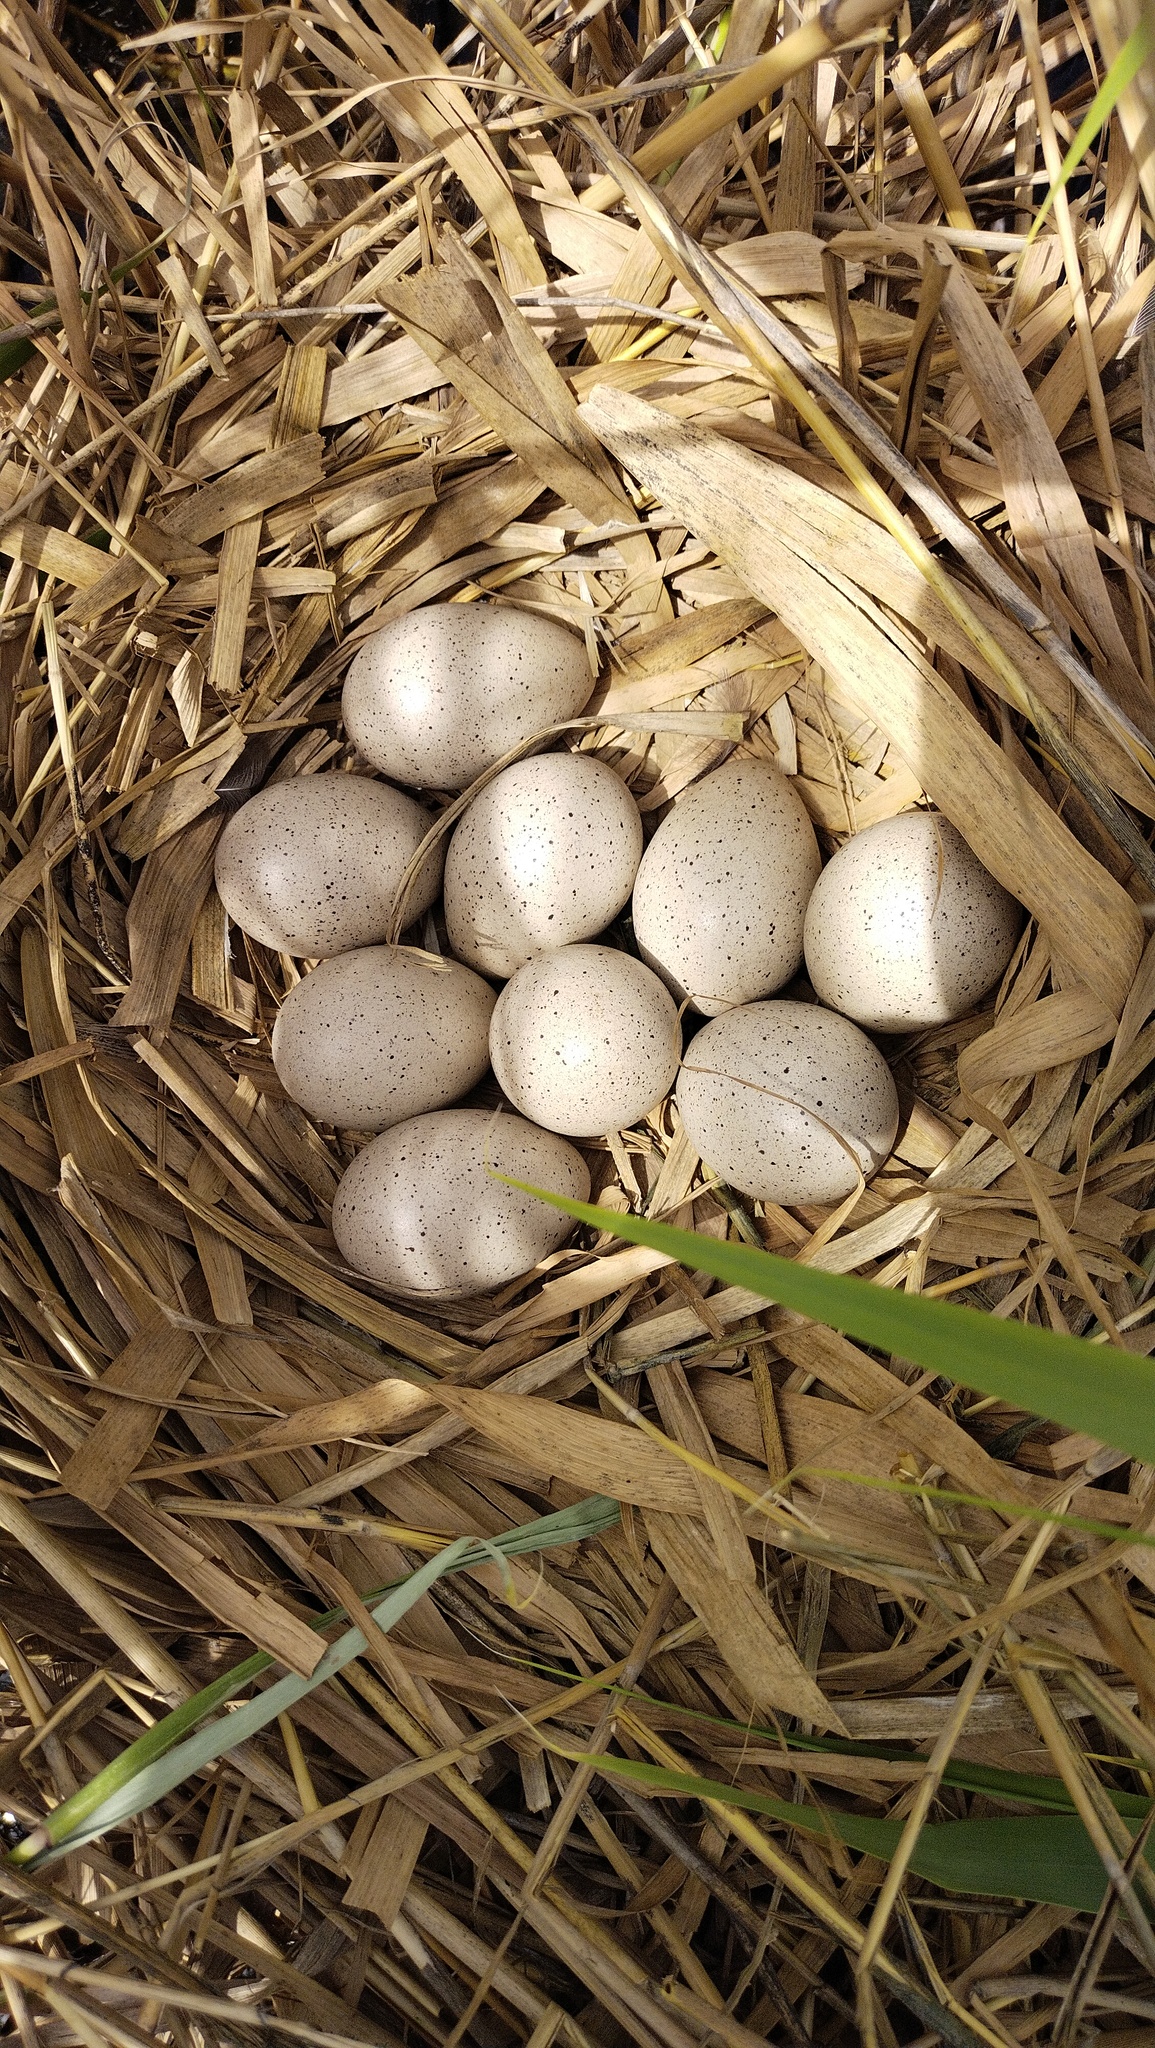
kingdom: Animalia
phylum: Chordata
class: Aves
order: Gruiformes
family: Rallidae
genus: Fulica
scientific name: Fulica atra
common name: Eurasian coot
